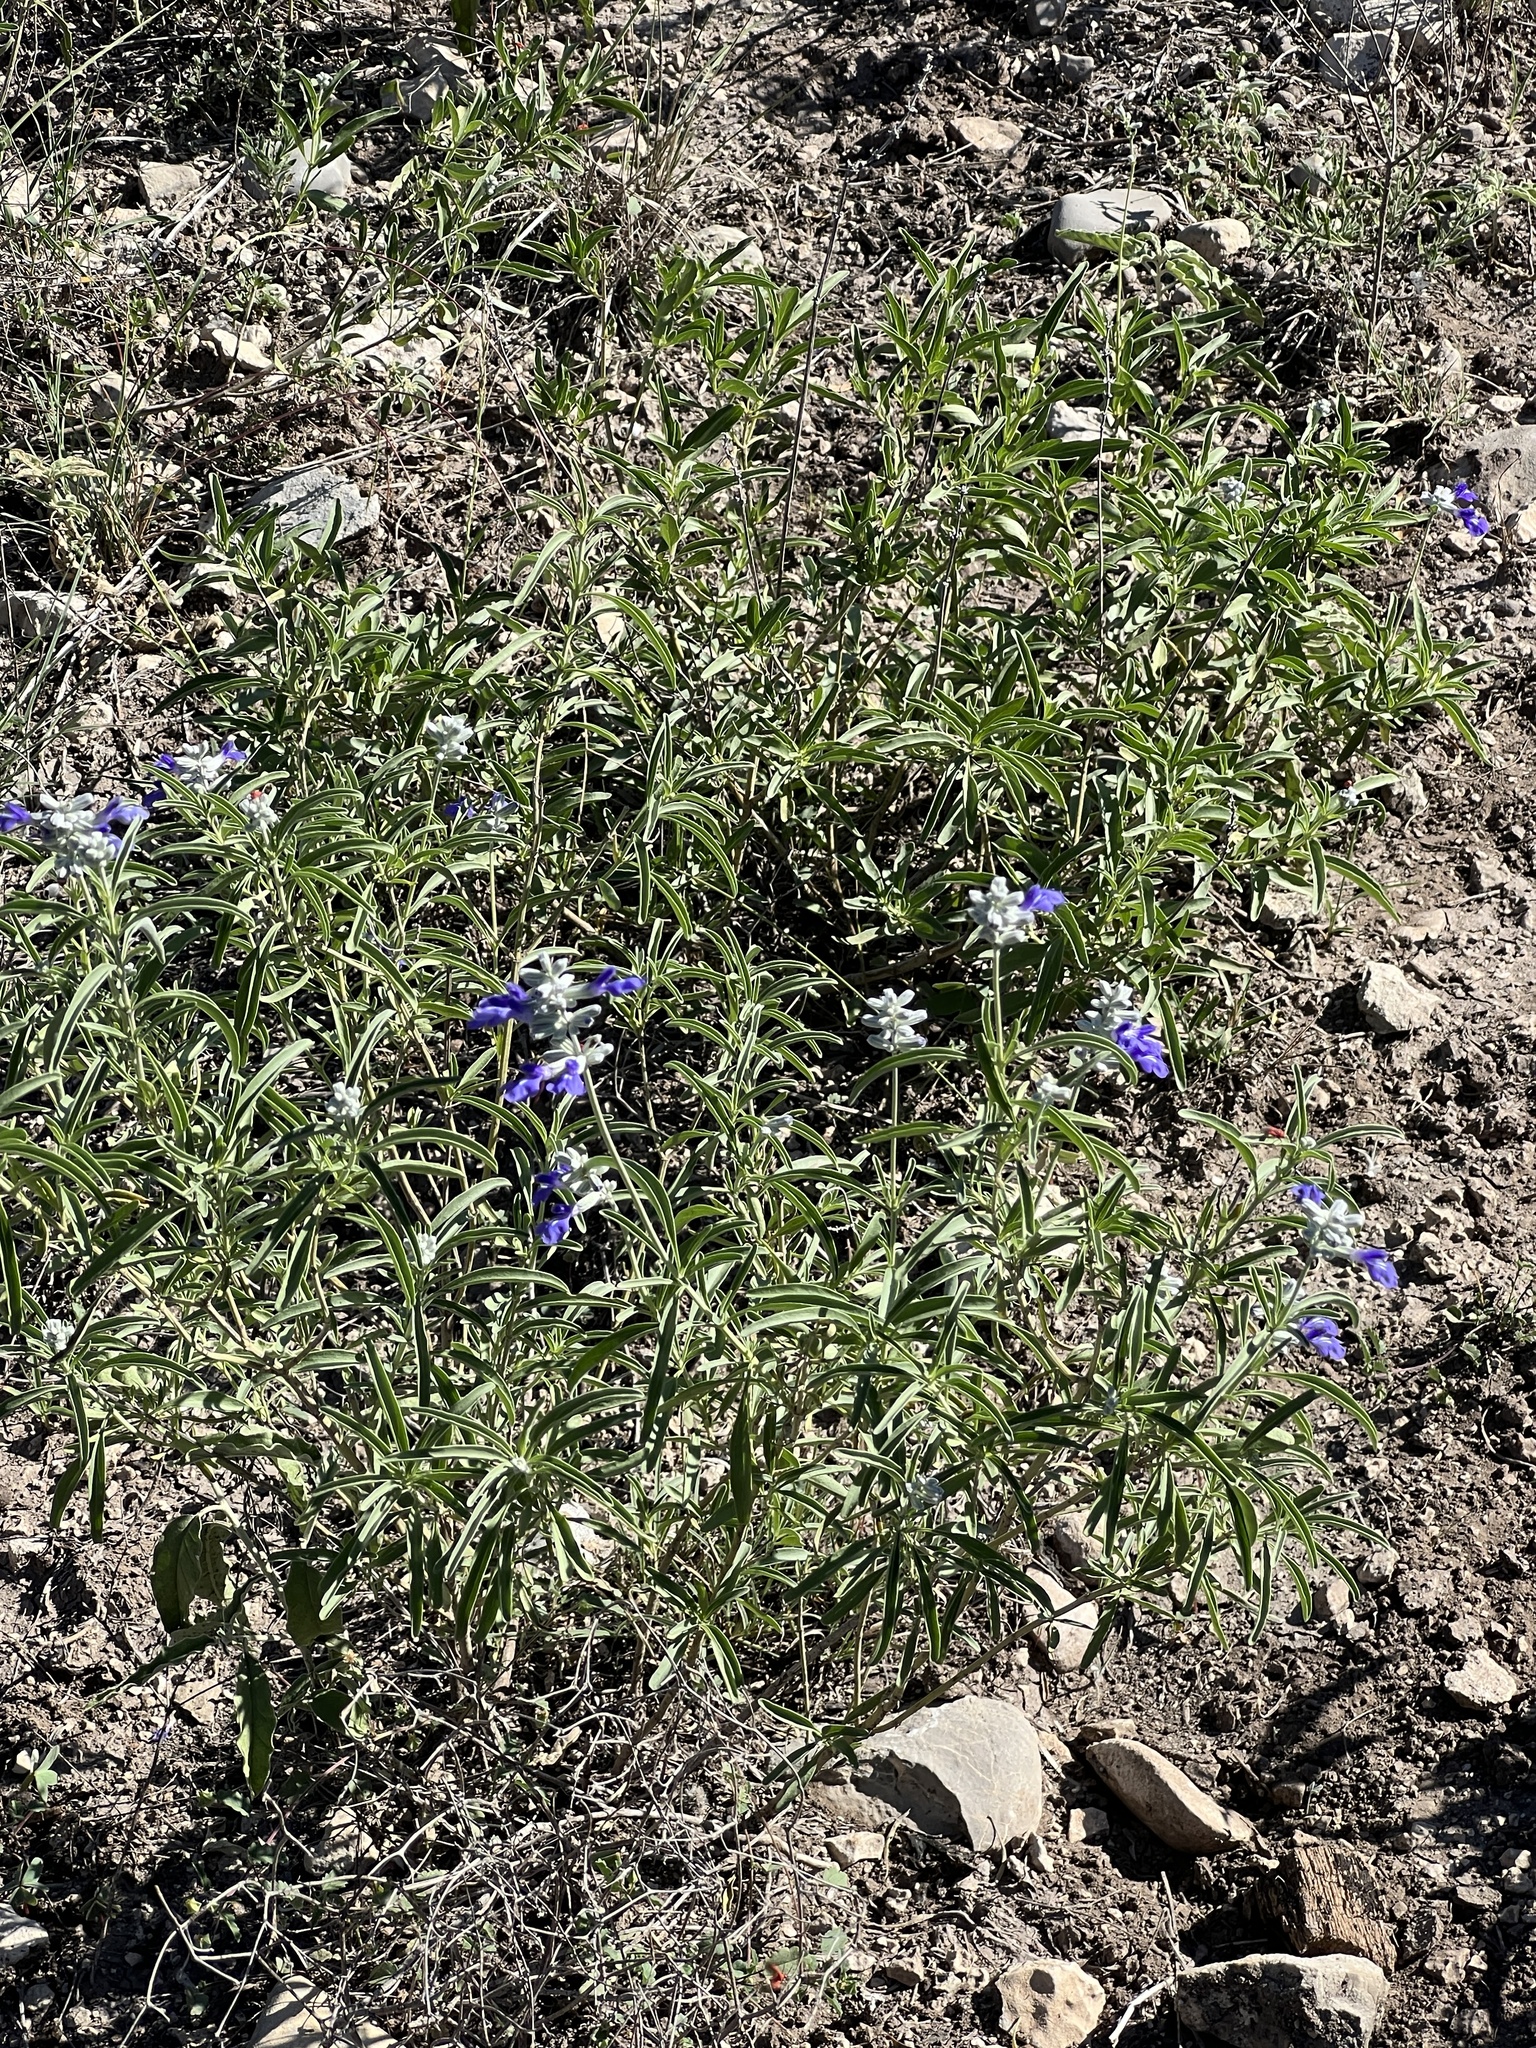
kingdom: Plantae
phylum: Tracheophyta
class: Magnoliopsida
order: Lamiales
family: Lamiaceae
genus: Salvia
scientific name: Salvia farinacea
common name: Mealy sage
